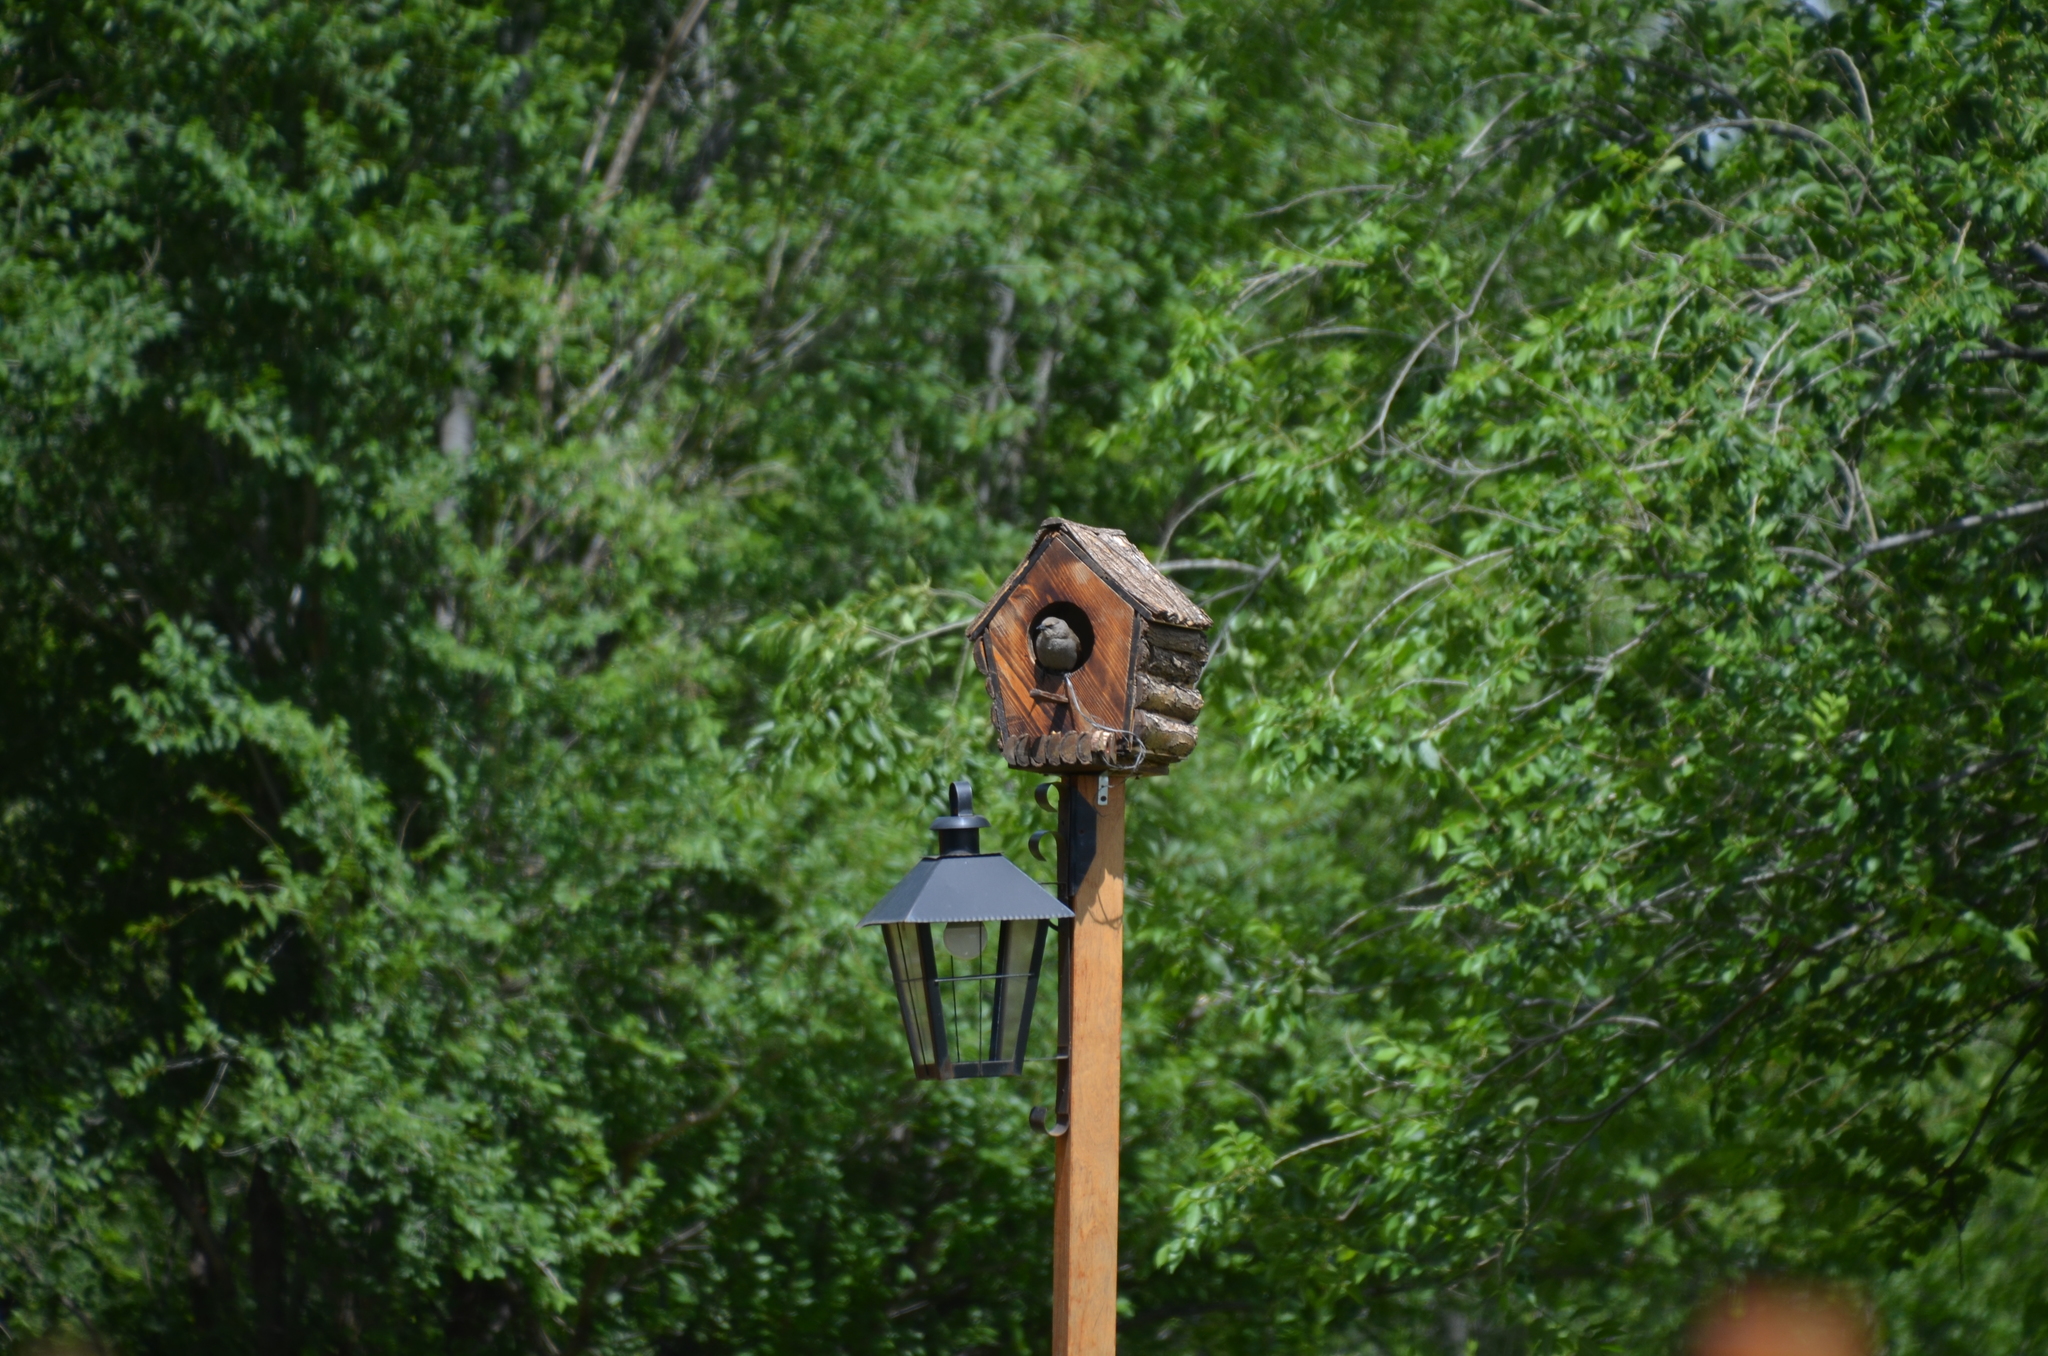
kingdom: Animalia
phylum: Chordata
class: Aves
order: Passeriformes
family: Icteridae
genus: Agelaioides
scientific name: Agelaioides badius
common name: Baywing
